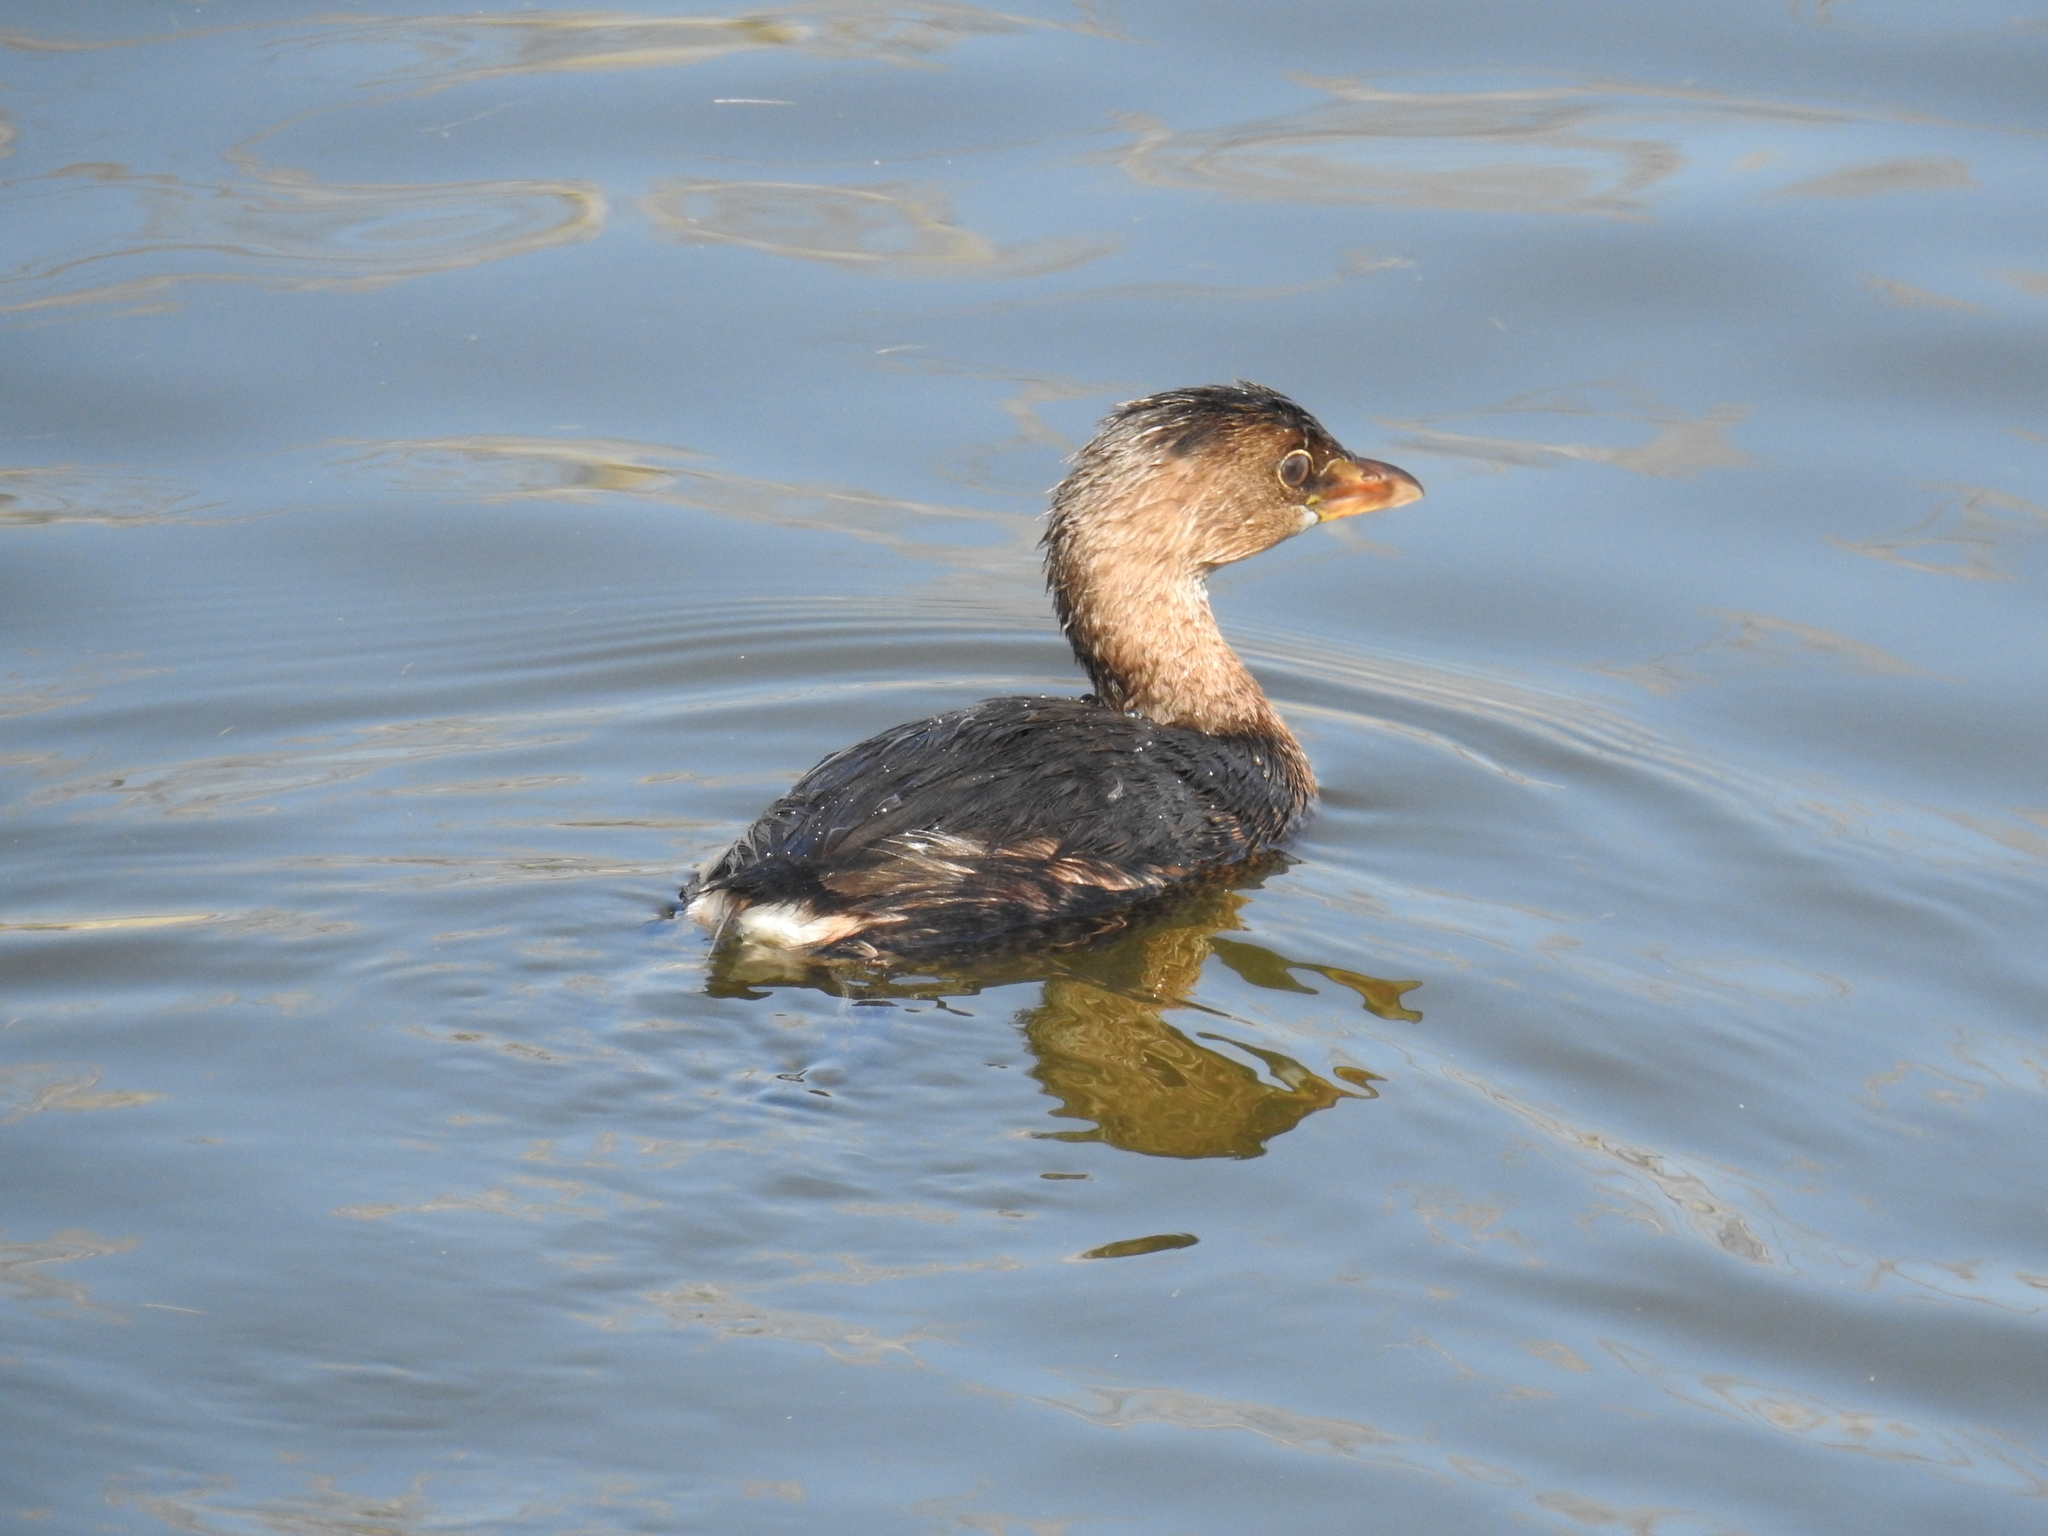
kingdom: Animalia
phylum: Chordata
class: Aves
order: Podicipediformes
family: Podicipedidae
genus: Podilymbus
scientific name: Podilymbus podiceps
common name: Pied-billed grebe
